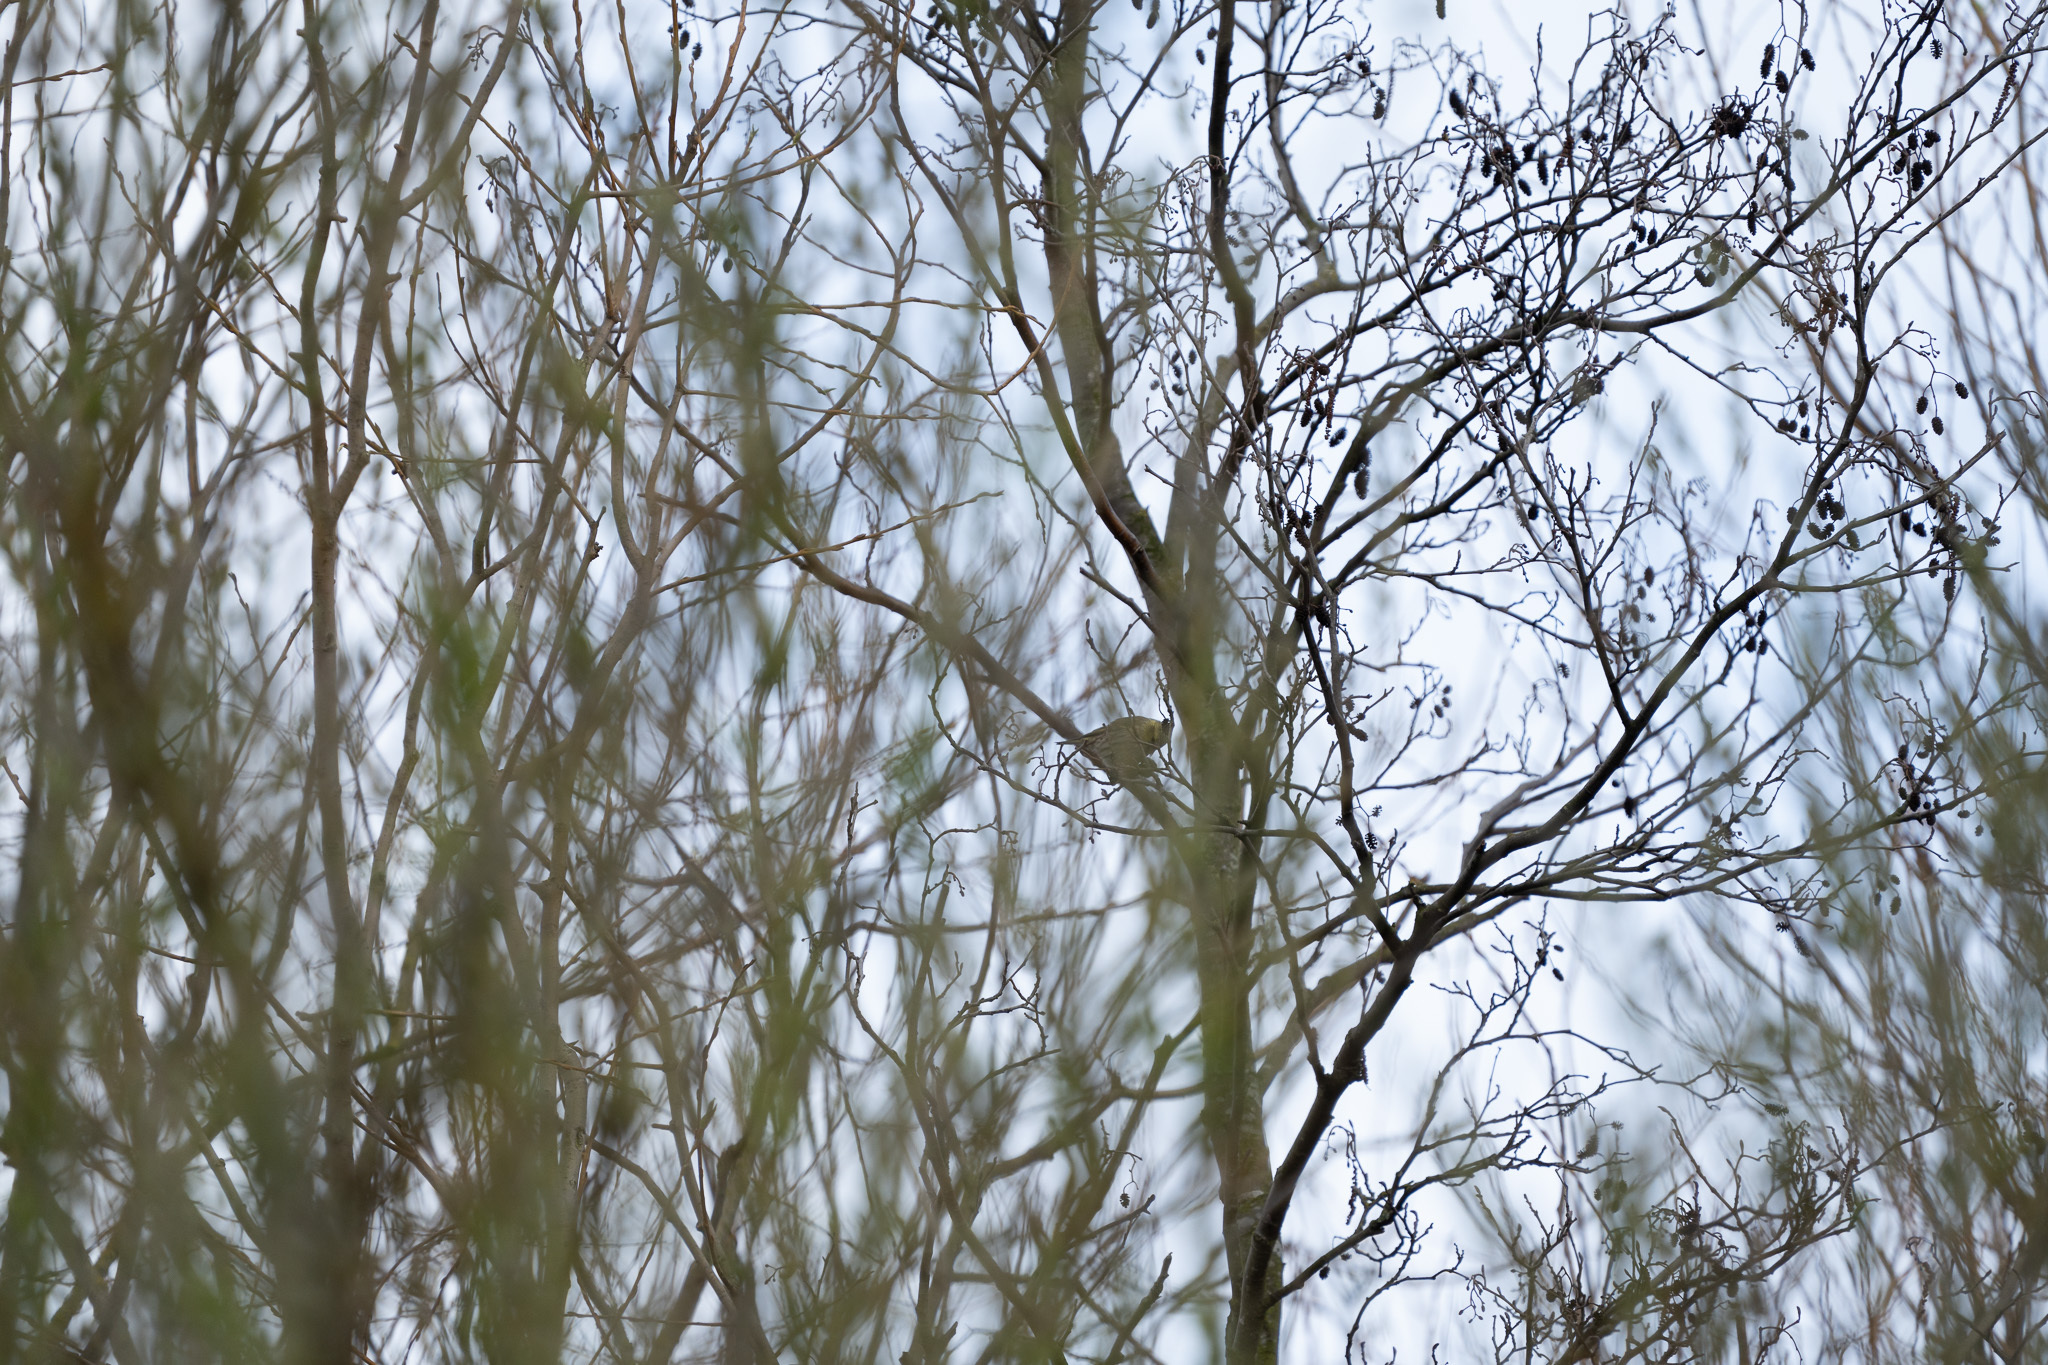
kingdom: Animalia
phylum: Chordata
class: Aves
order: Passeriformes
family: Fringillidae
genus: Spinus
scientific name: Spinus spinus
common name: Eurasian siskin
